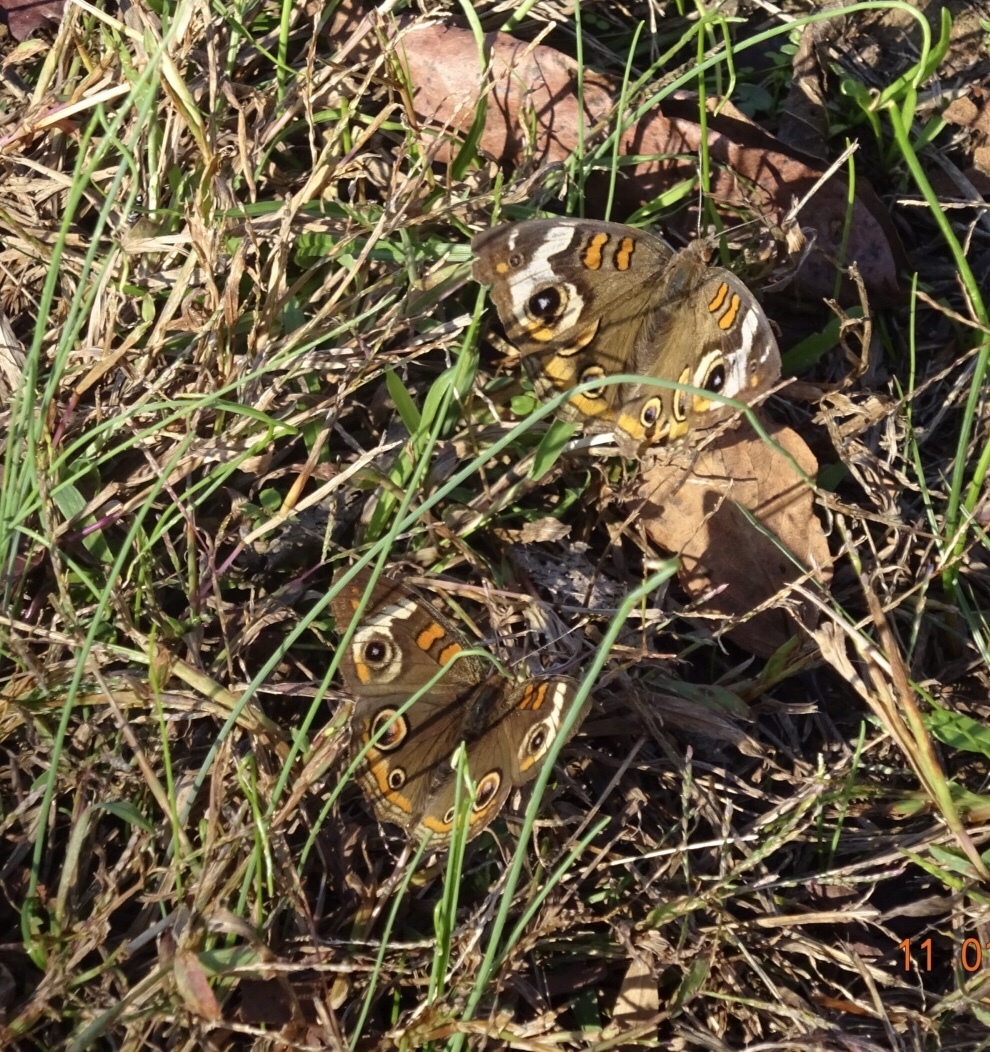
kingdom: Animalia
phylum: Arthropoda
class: Insecta
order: Lepidoptera
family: Nymphalidae
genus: Junonia
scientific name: Junonia coenia
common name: Common buckeye
